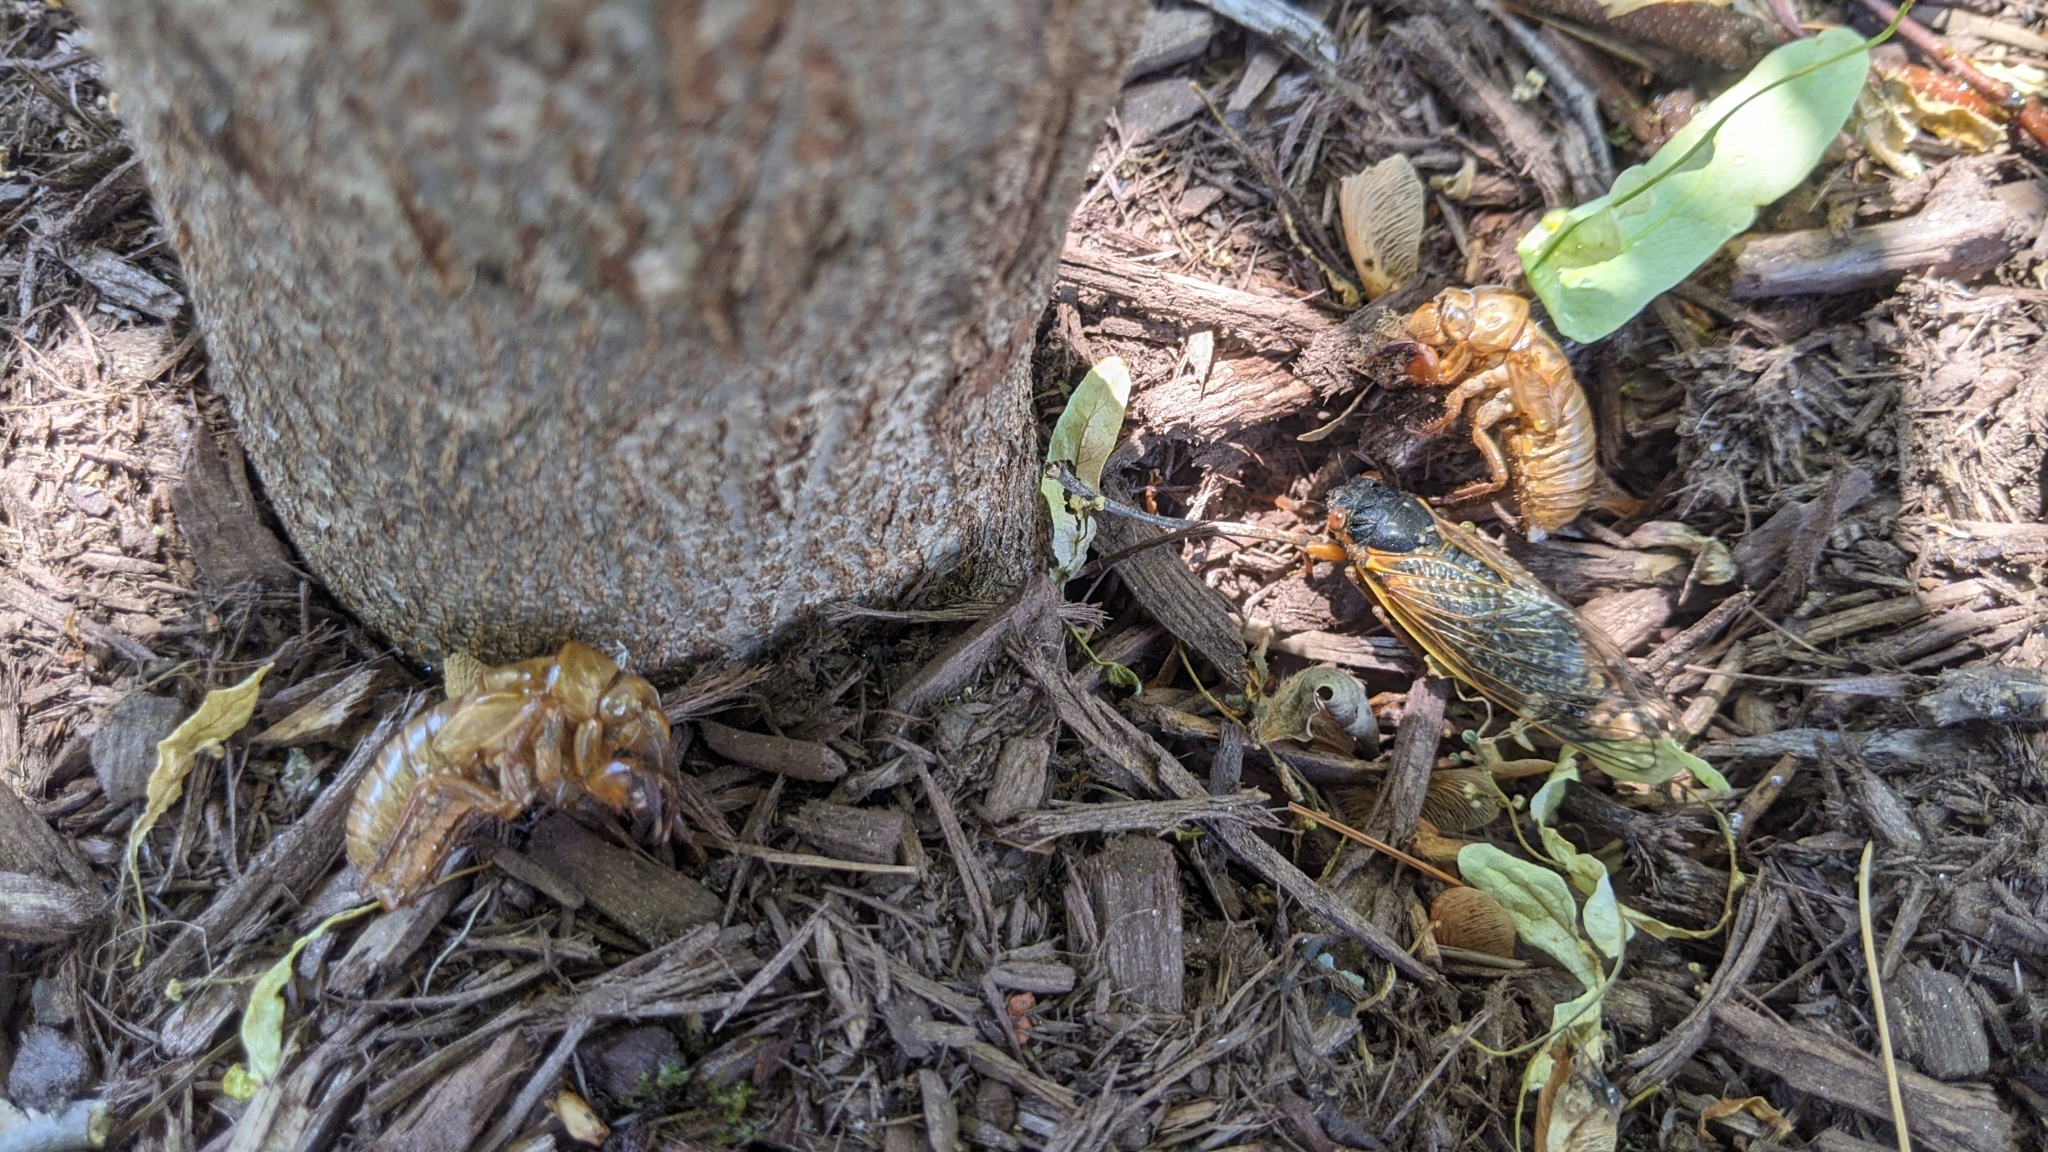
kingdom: Animalia
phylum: Arthropoda
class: Insecta
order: Hemiptera
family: Cicadidae
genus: Magicicada
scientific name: Magicicada septendecim
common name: Periodical cicada
